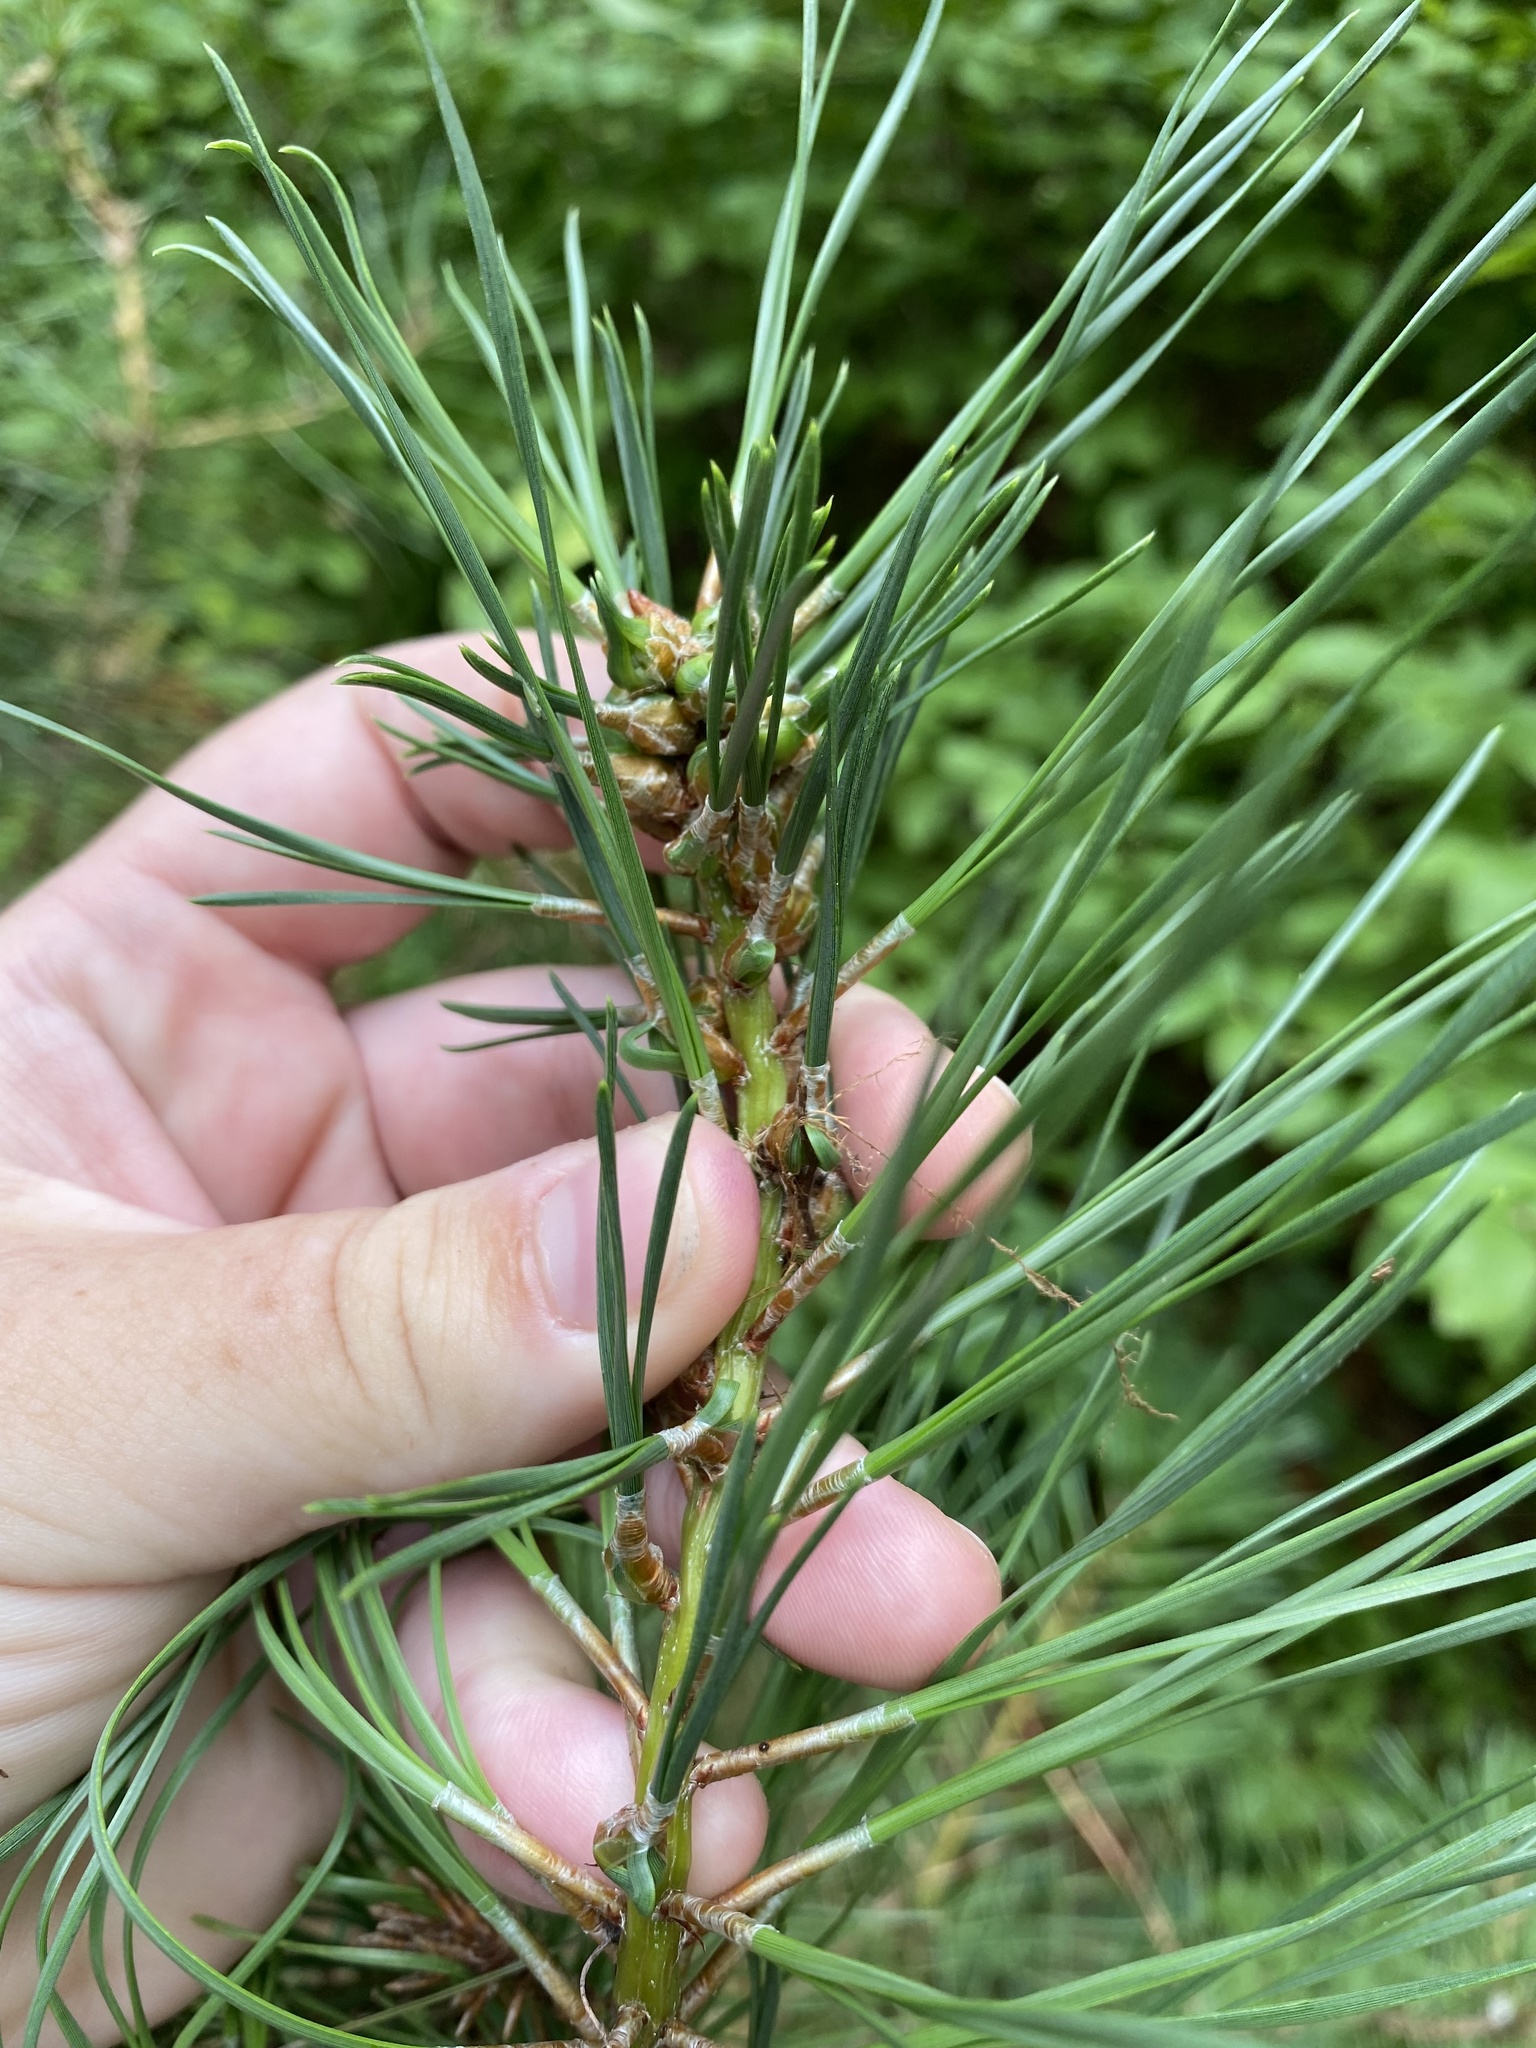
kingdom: Animalia
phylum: Arthropoda
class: Insecta
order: Diptera
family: Cecidomyiidae
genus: Thecodiplosis
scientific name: Thecodiplosis brachynteroides
